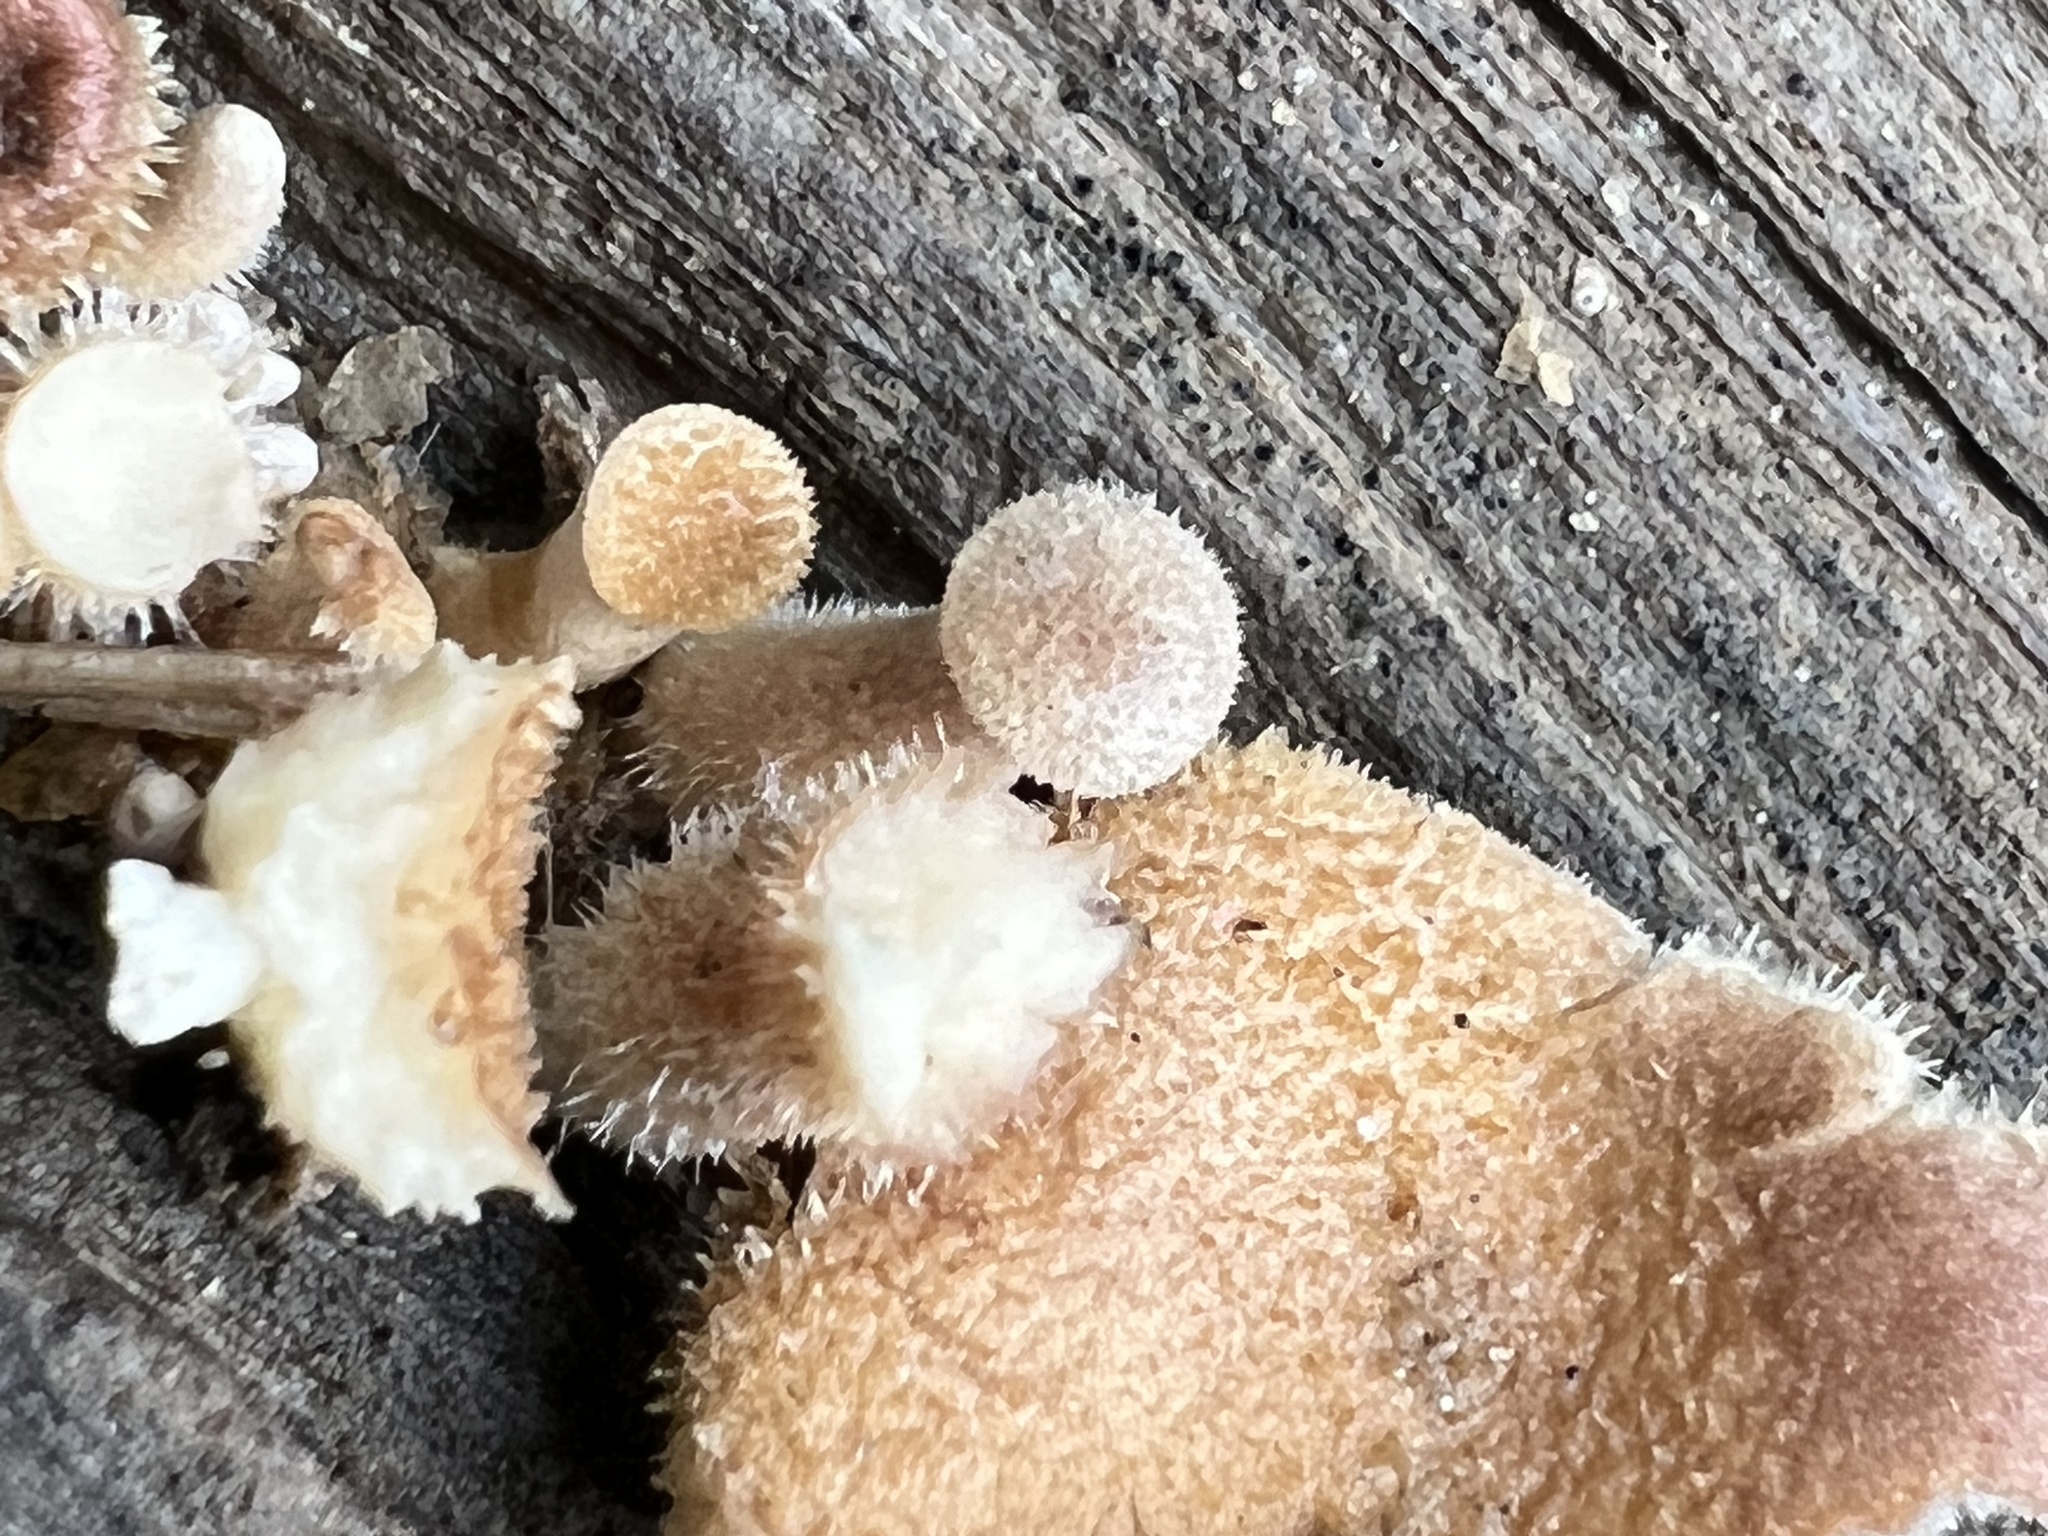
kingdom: Fungi
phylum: Basidiomycota
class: Agaricomycetes
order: Polyporales
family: Panaceae
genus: Panus
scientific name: Panus neostrigosus
